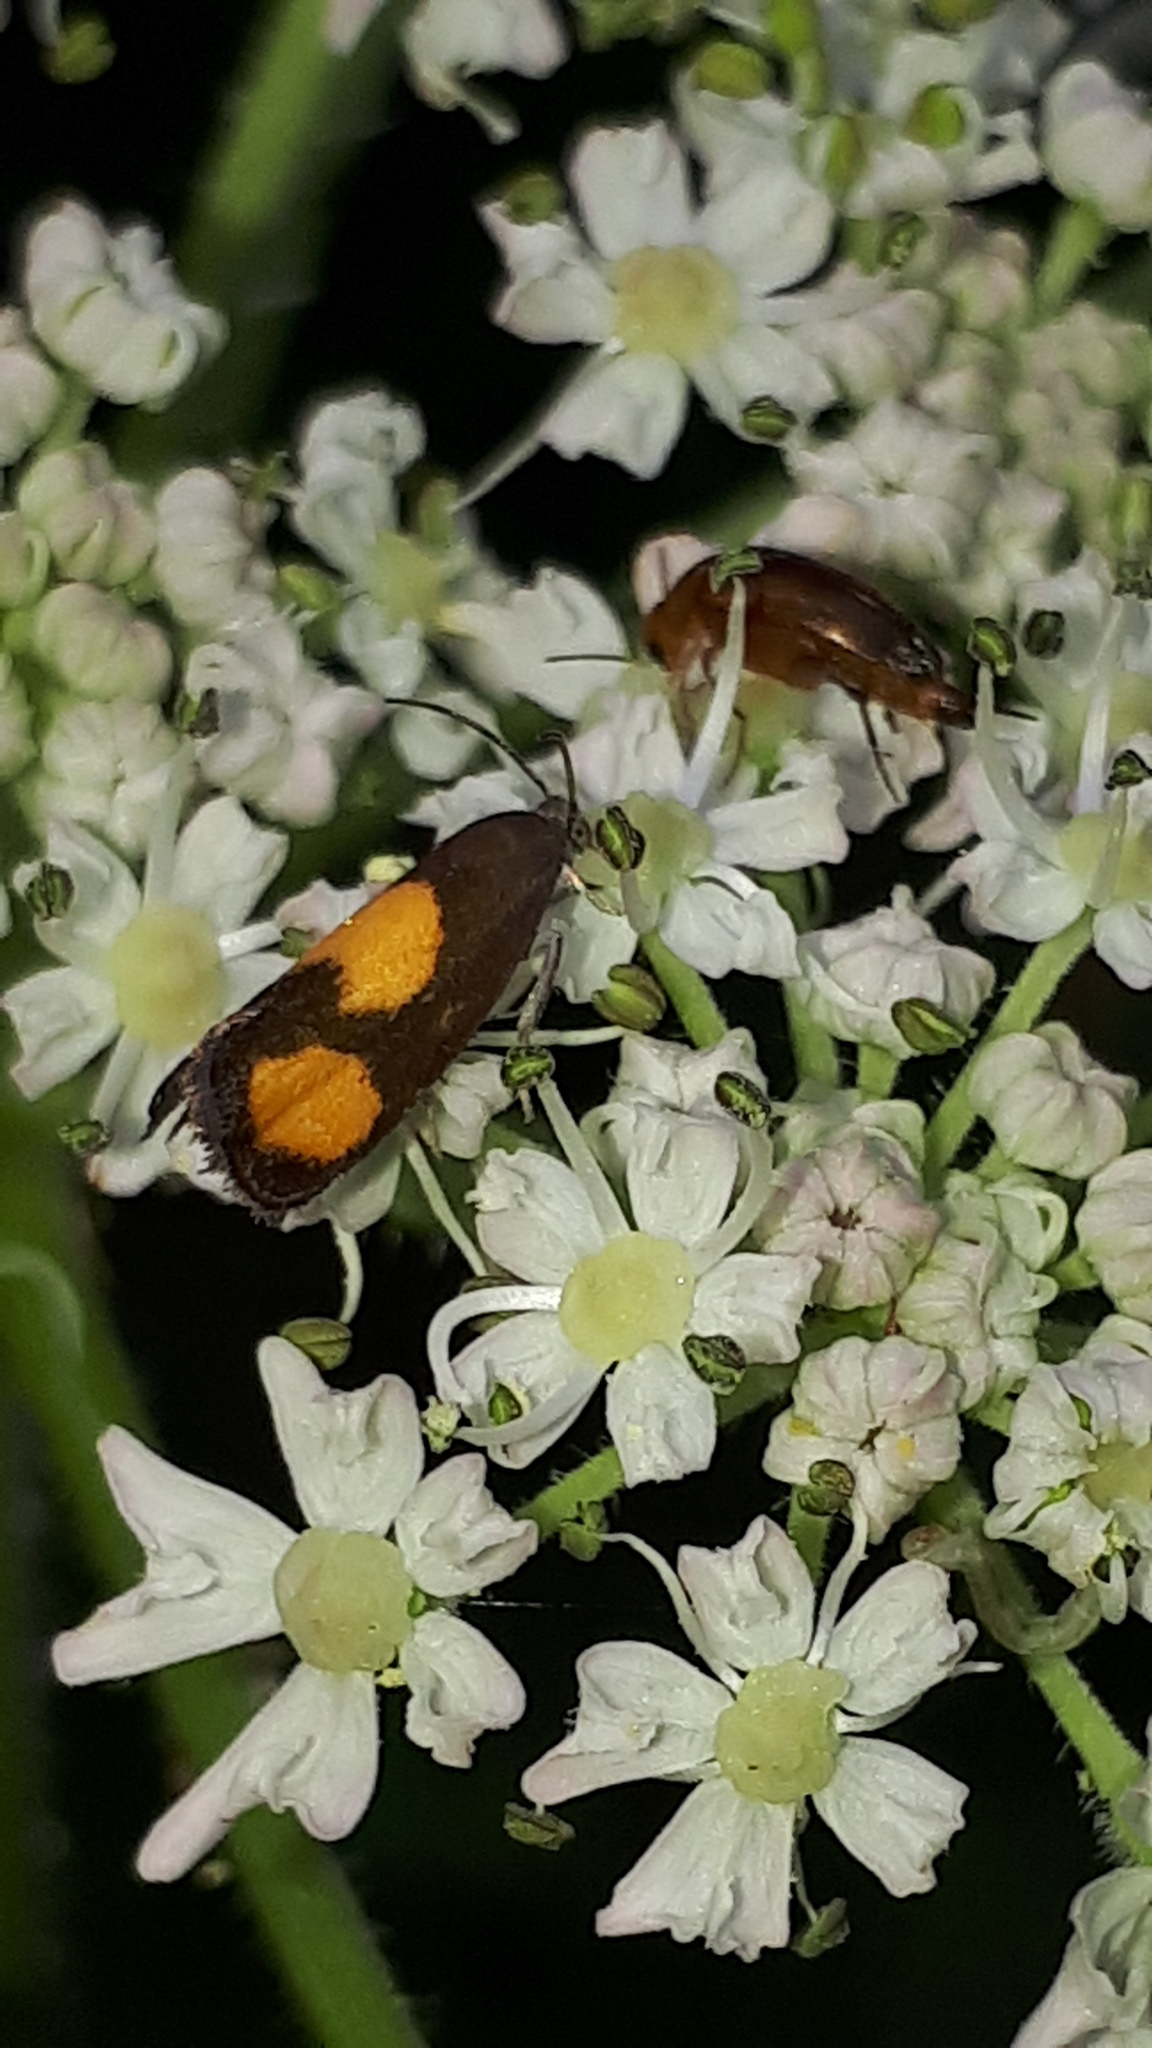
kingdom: Animalia
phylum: Arthropoda
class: Insecta
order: Lepidoptera
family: Tortricidae
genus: Pammene
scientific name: Pammene aurana
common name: Orange-spot piercer
